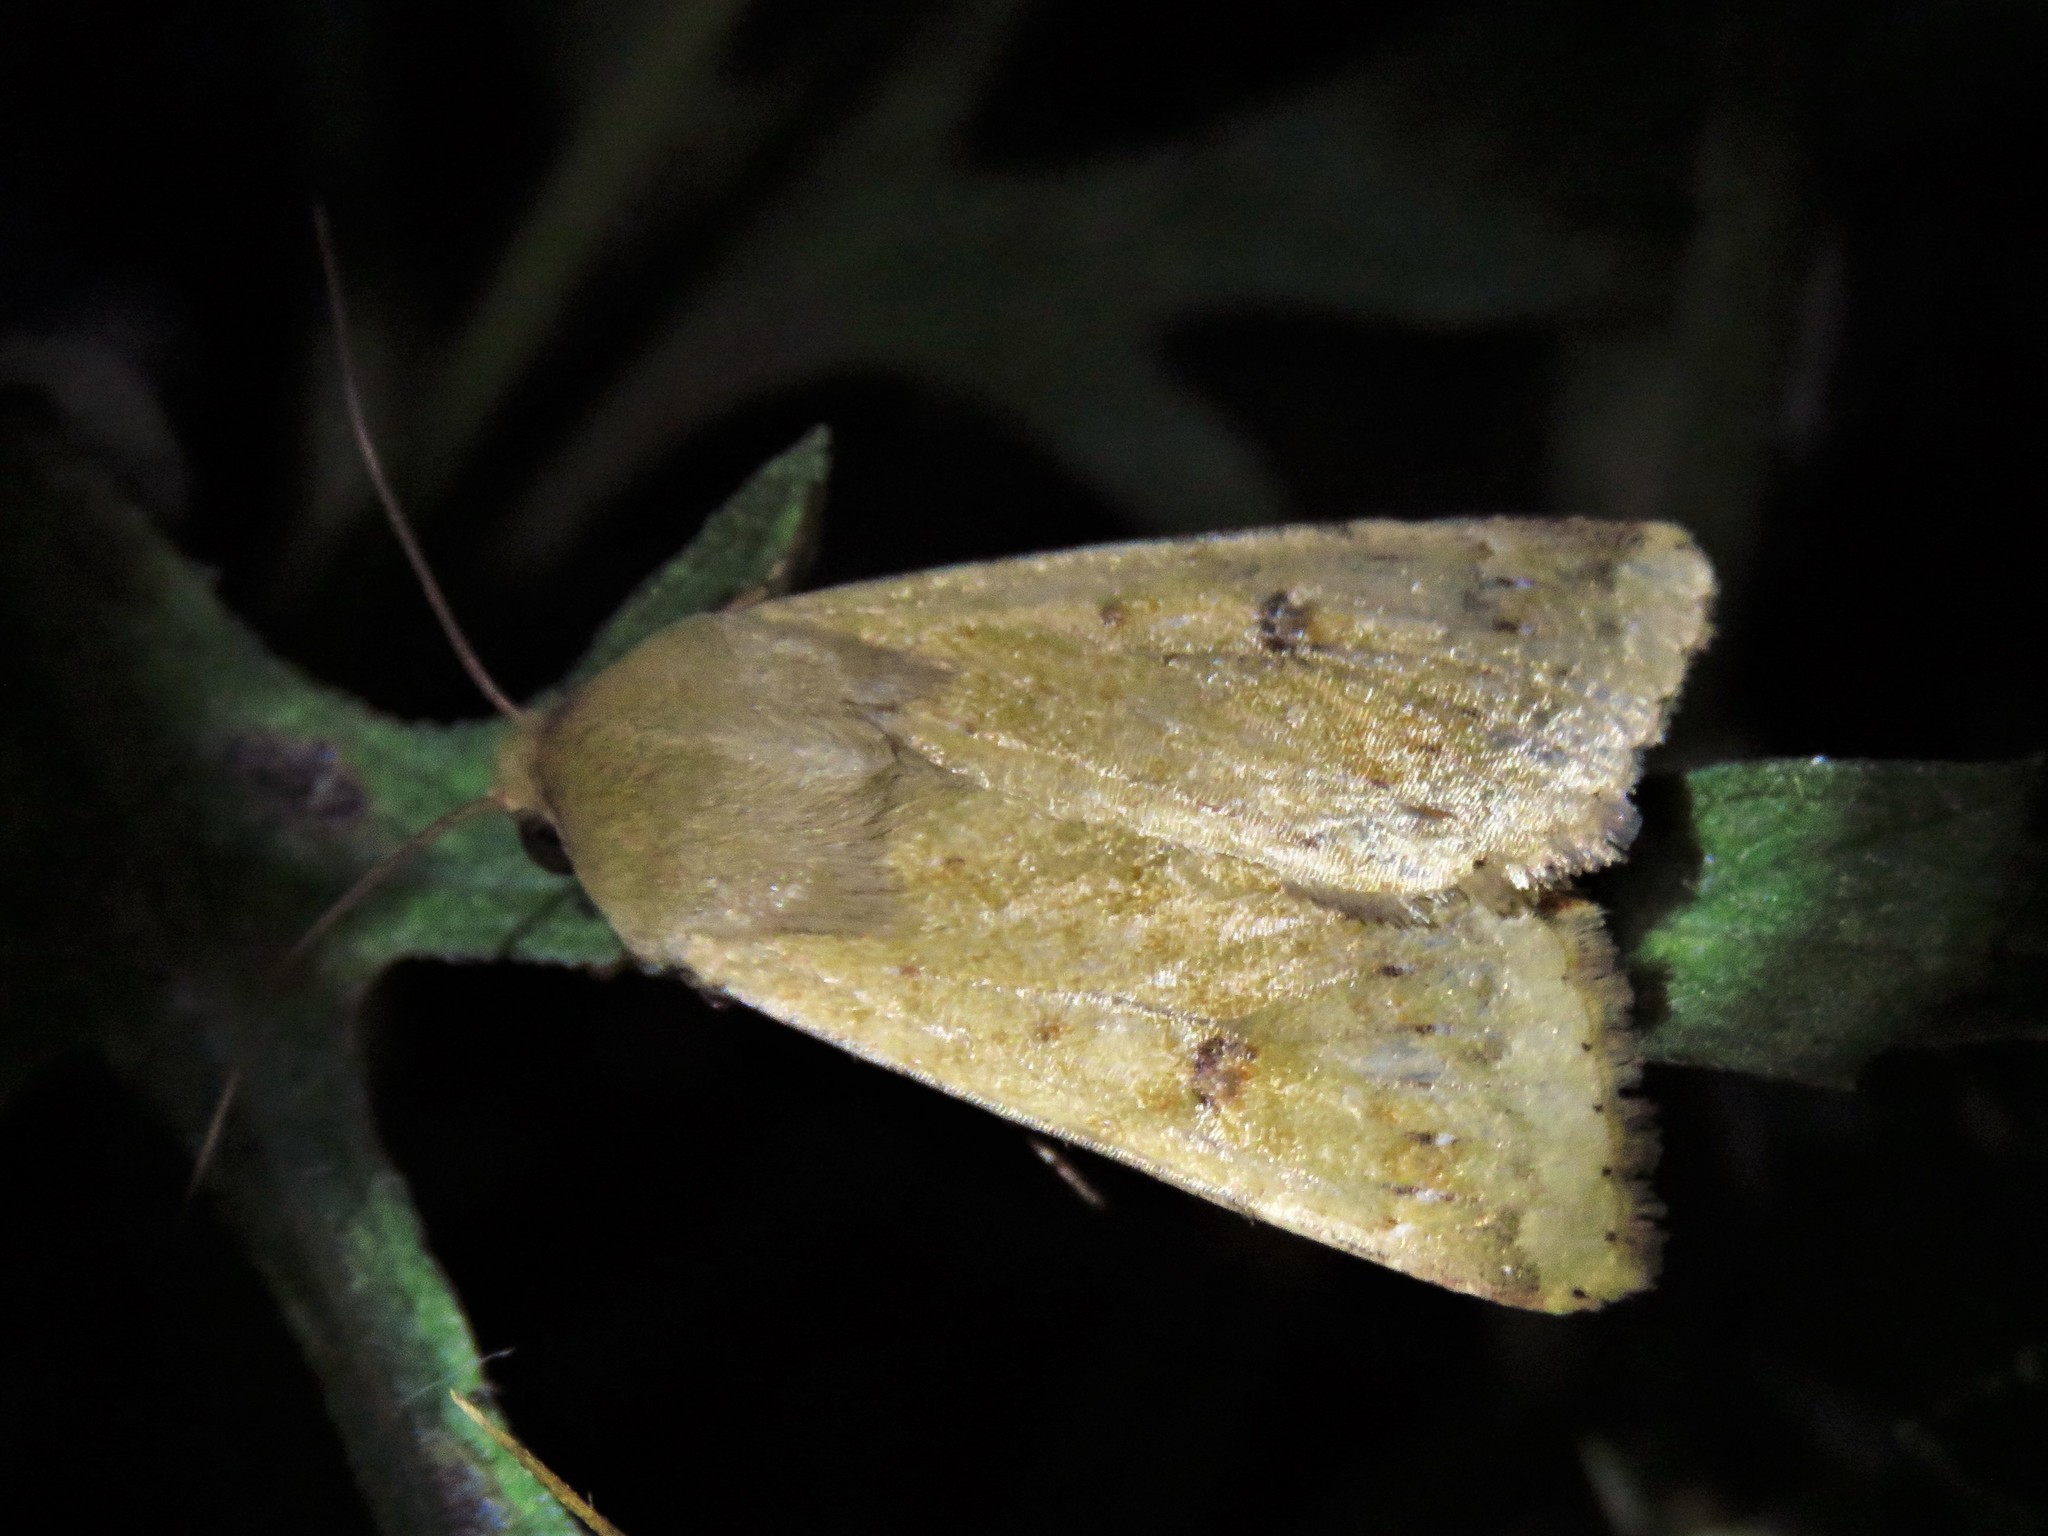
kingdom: Animalia
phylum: Arthropoda
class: Insecta
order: Lepidoptera
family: Noctuidae
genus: Helicoverpa
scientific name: Helicoverpa zea
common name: Bollworm
